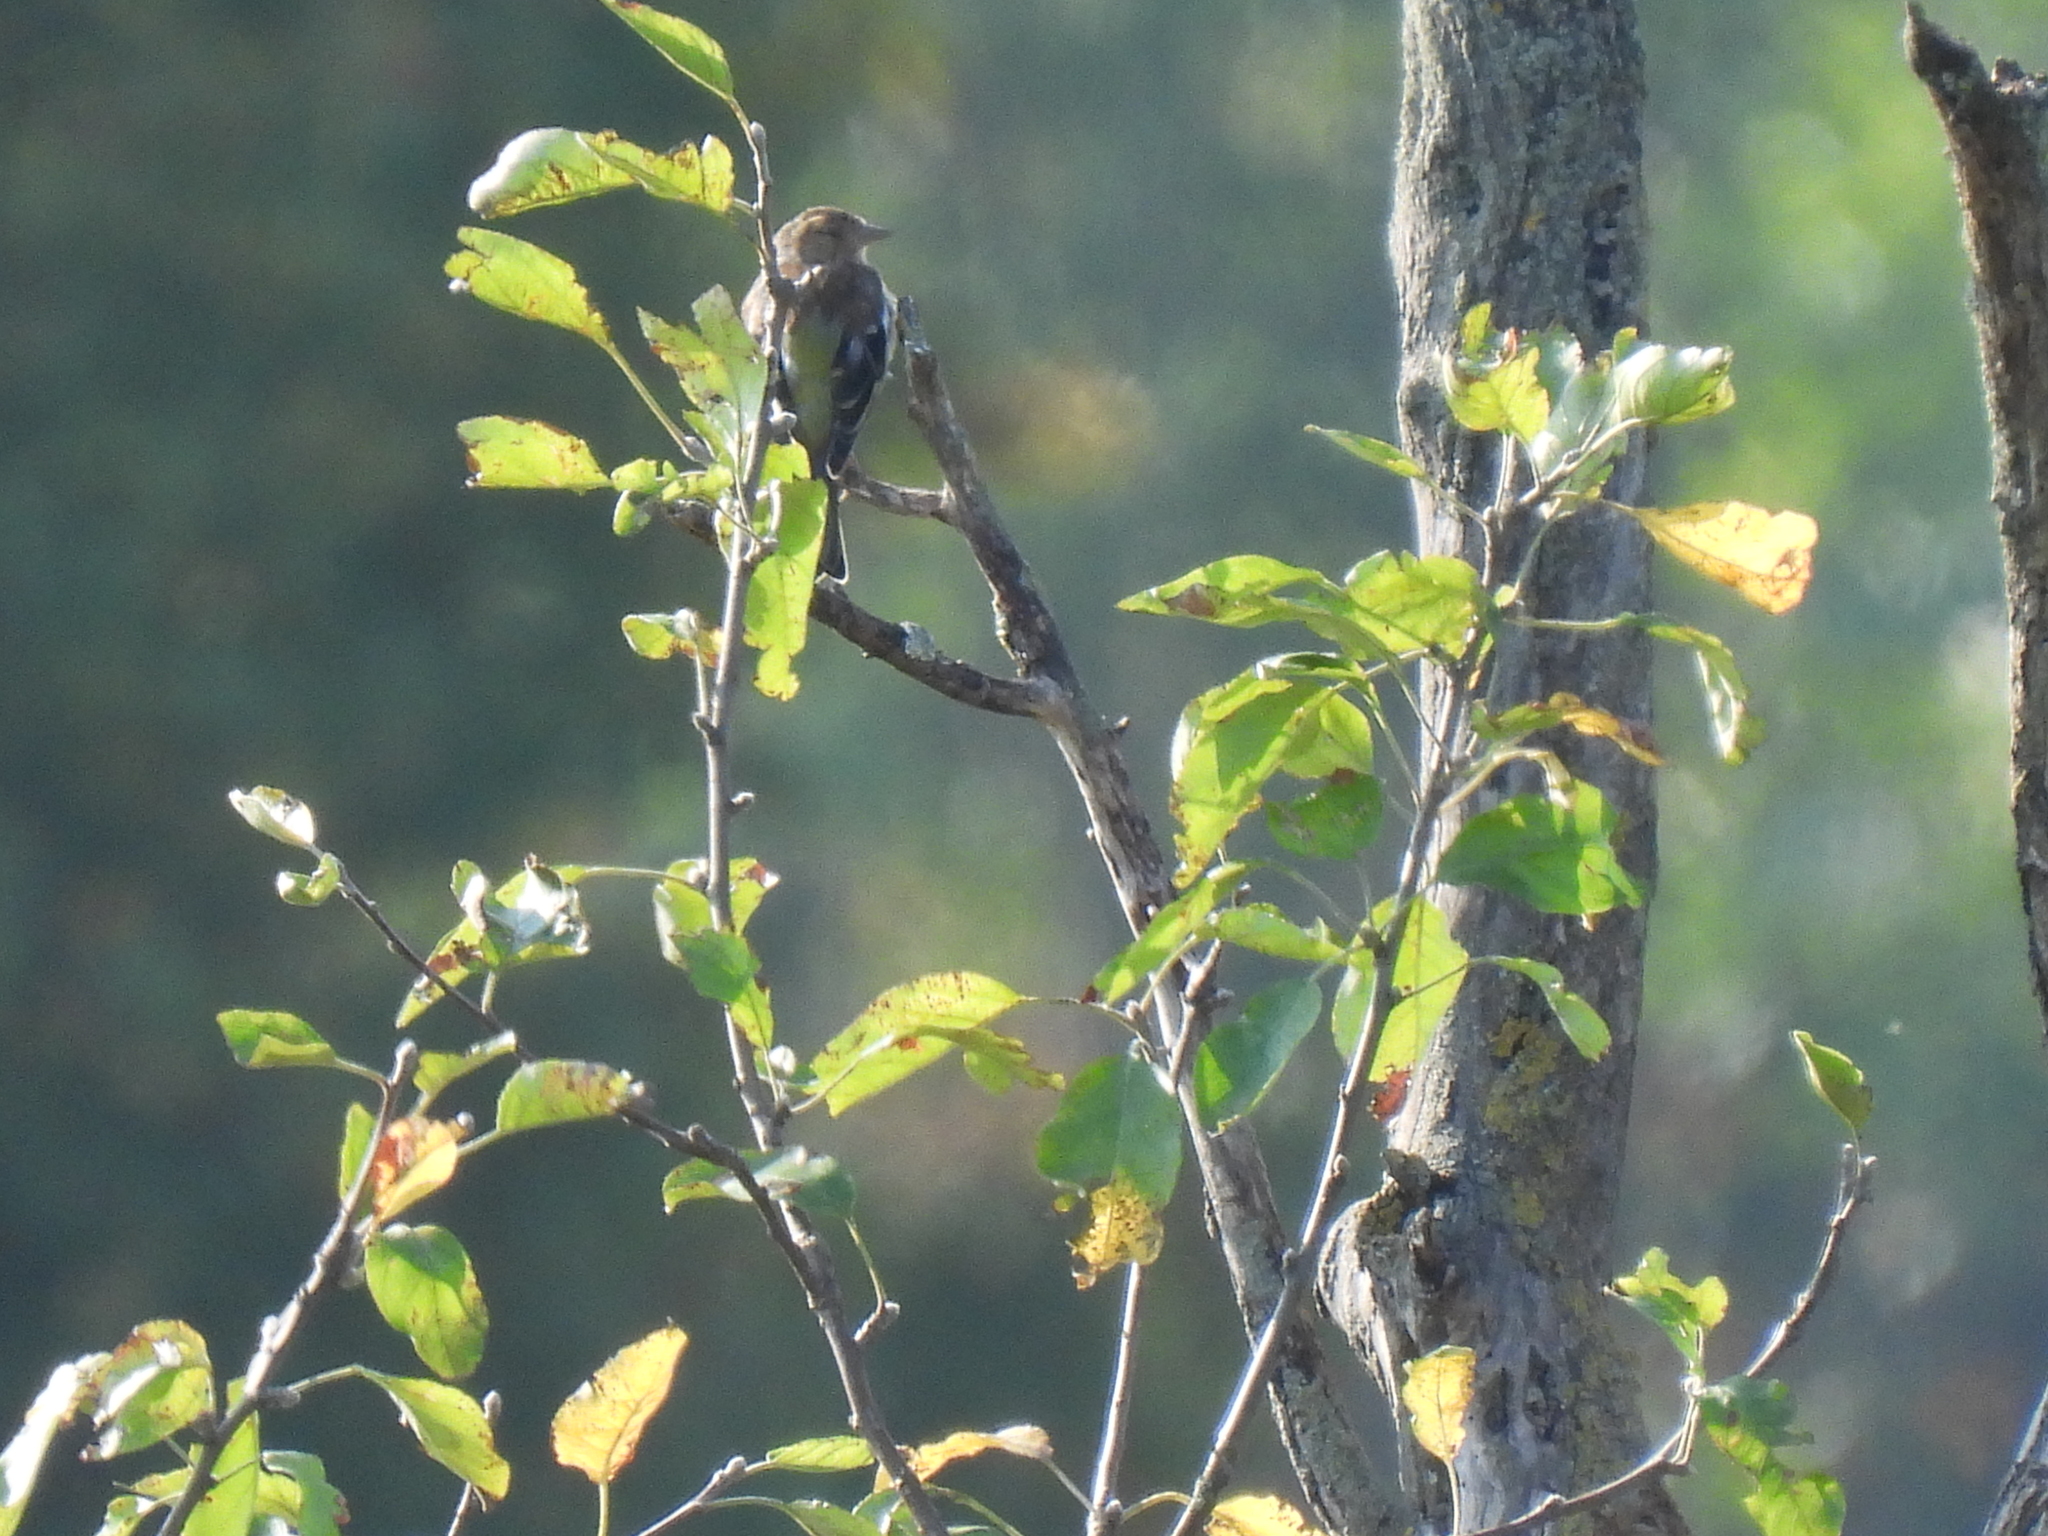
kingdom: Animalia
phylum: Chordata
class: Aves
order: Passeriformes
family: Fringillidae
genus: Fringilla
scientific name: Fringilla coelebs
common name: Common chaffinch
